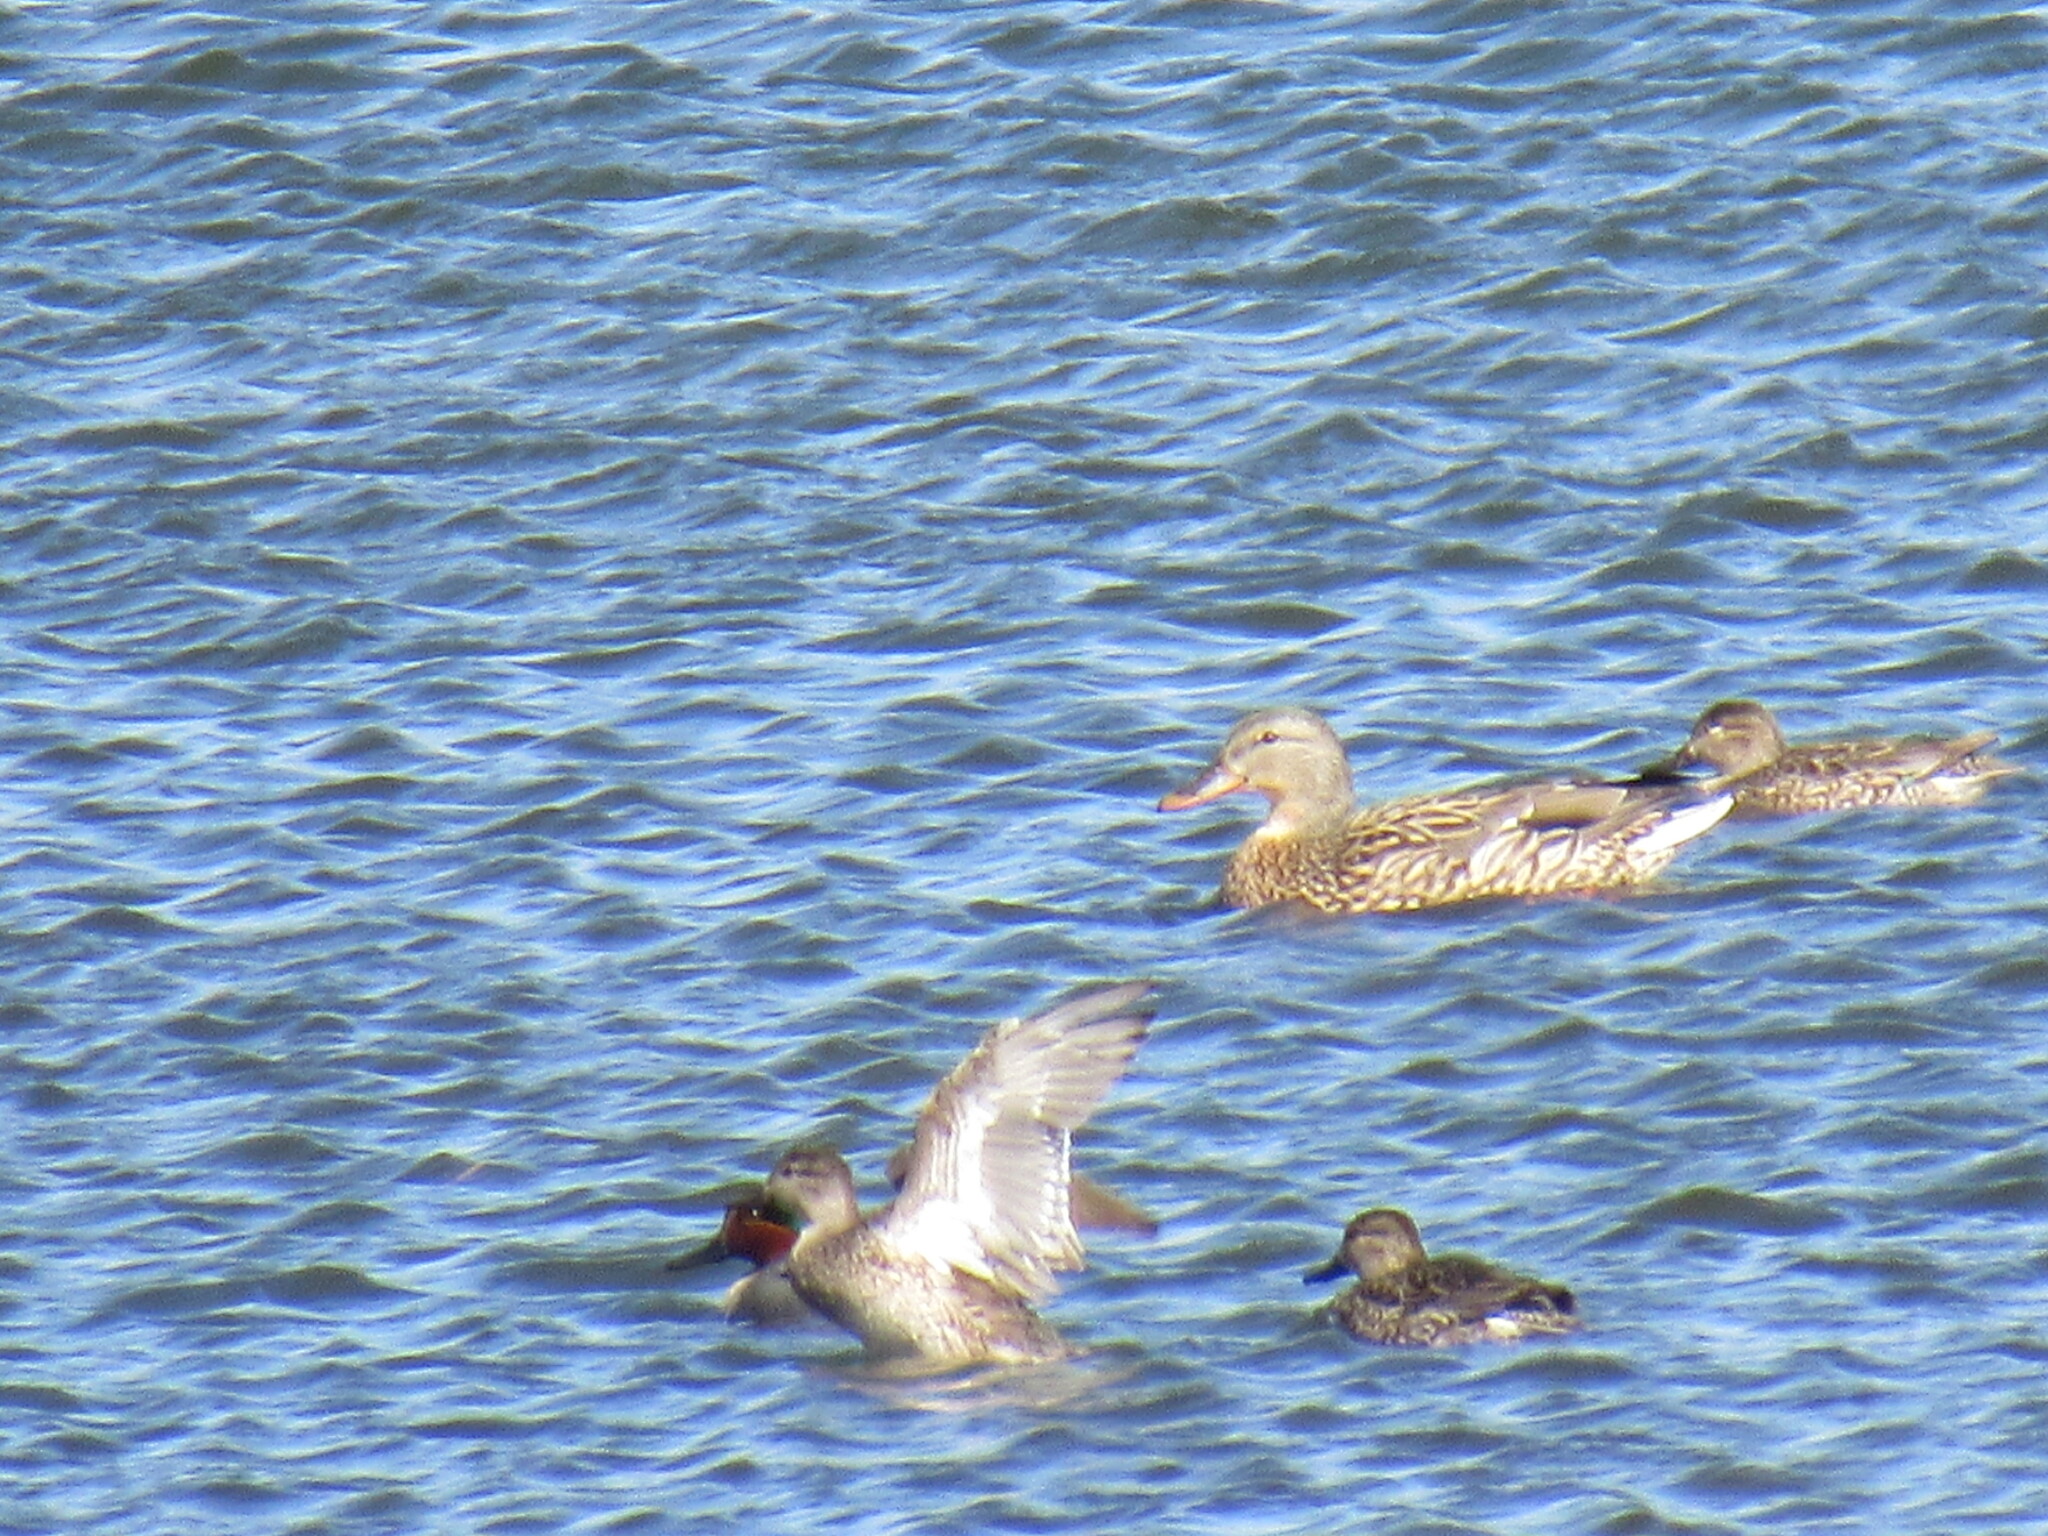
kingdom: Animalia
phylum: Chordata
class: Aves
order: Anseriformes
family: Anatidae
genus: Anas
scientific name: Anas crecca
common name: Eurasian teal
